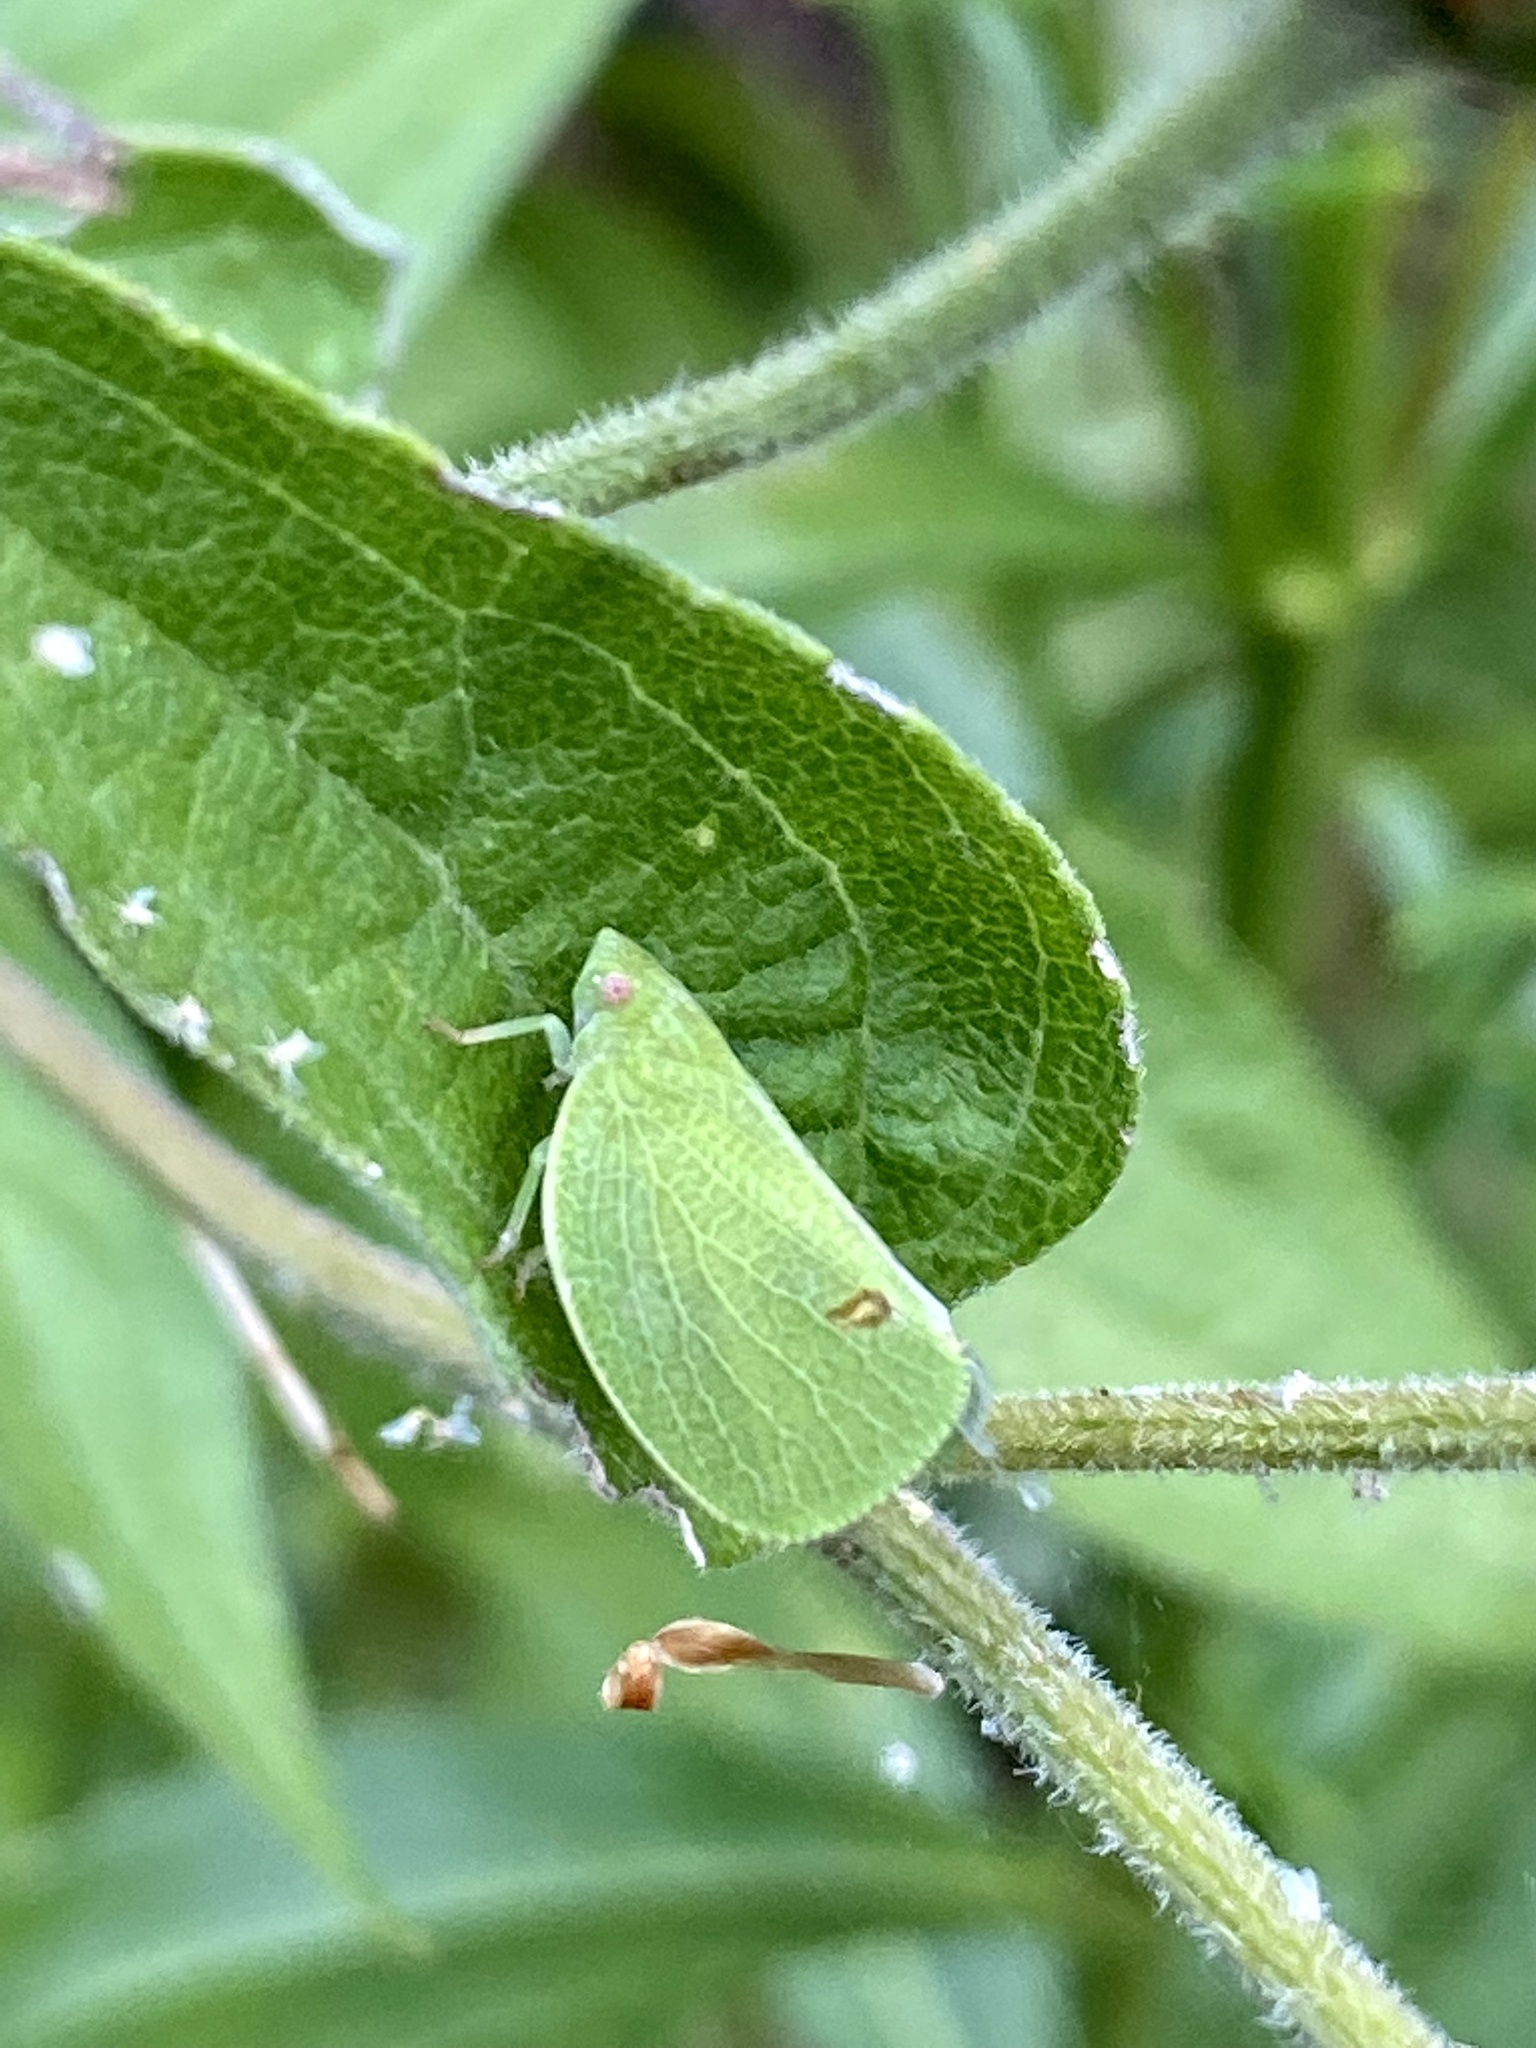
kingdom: Animalia
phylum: Arthropoda
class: Insecta
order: Hemiptera
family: Acanaloniidae
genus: Acanalonia
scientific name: Acanalonia conica
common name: Green cone-headed planthopper
